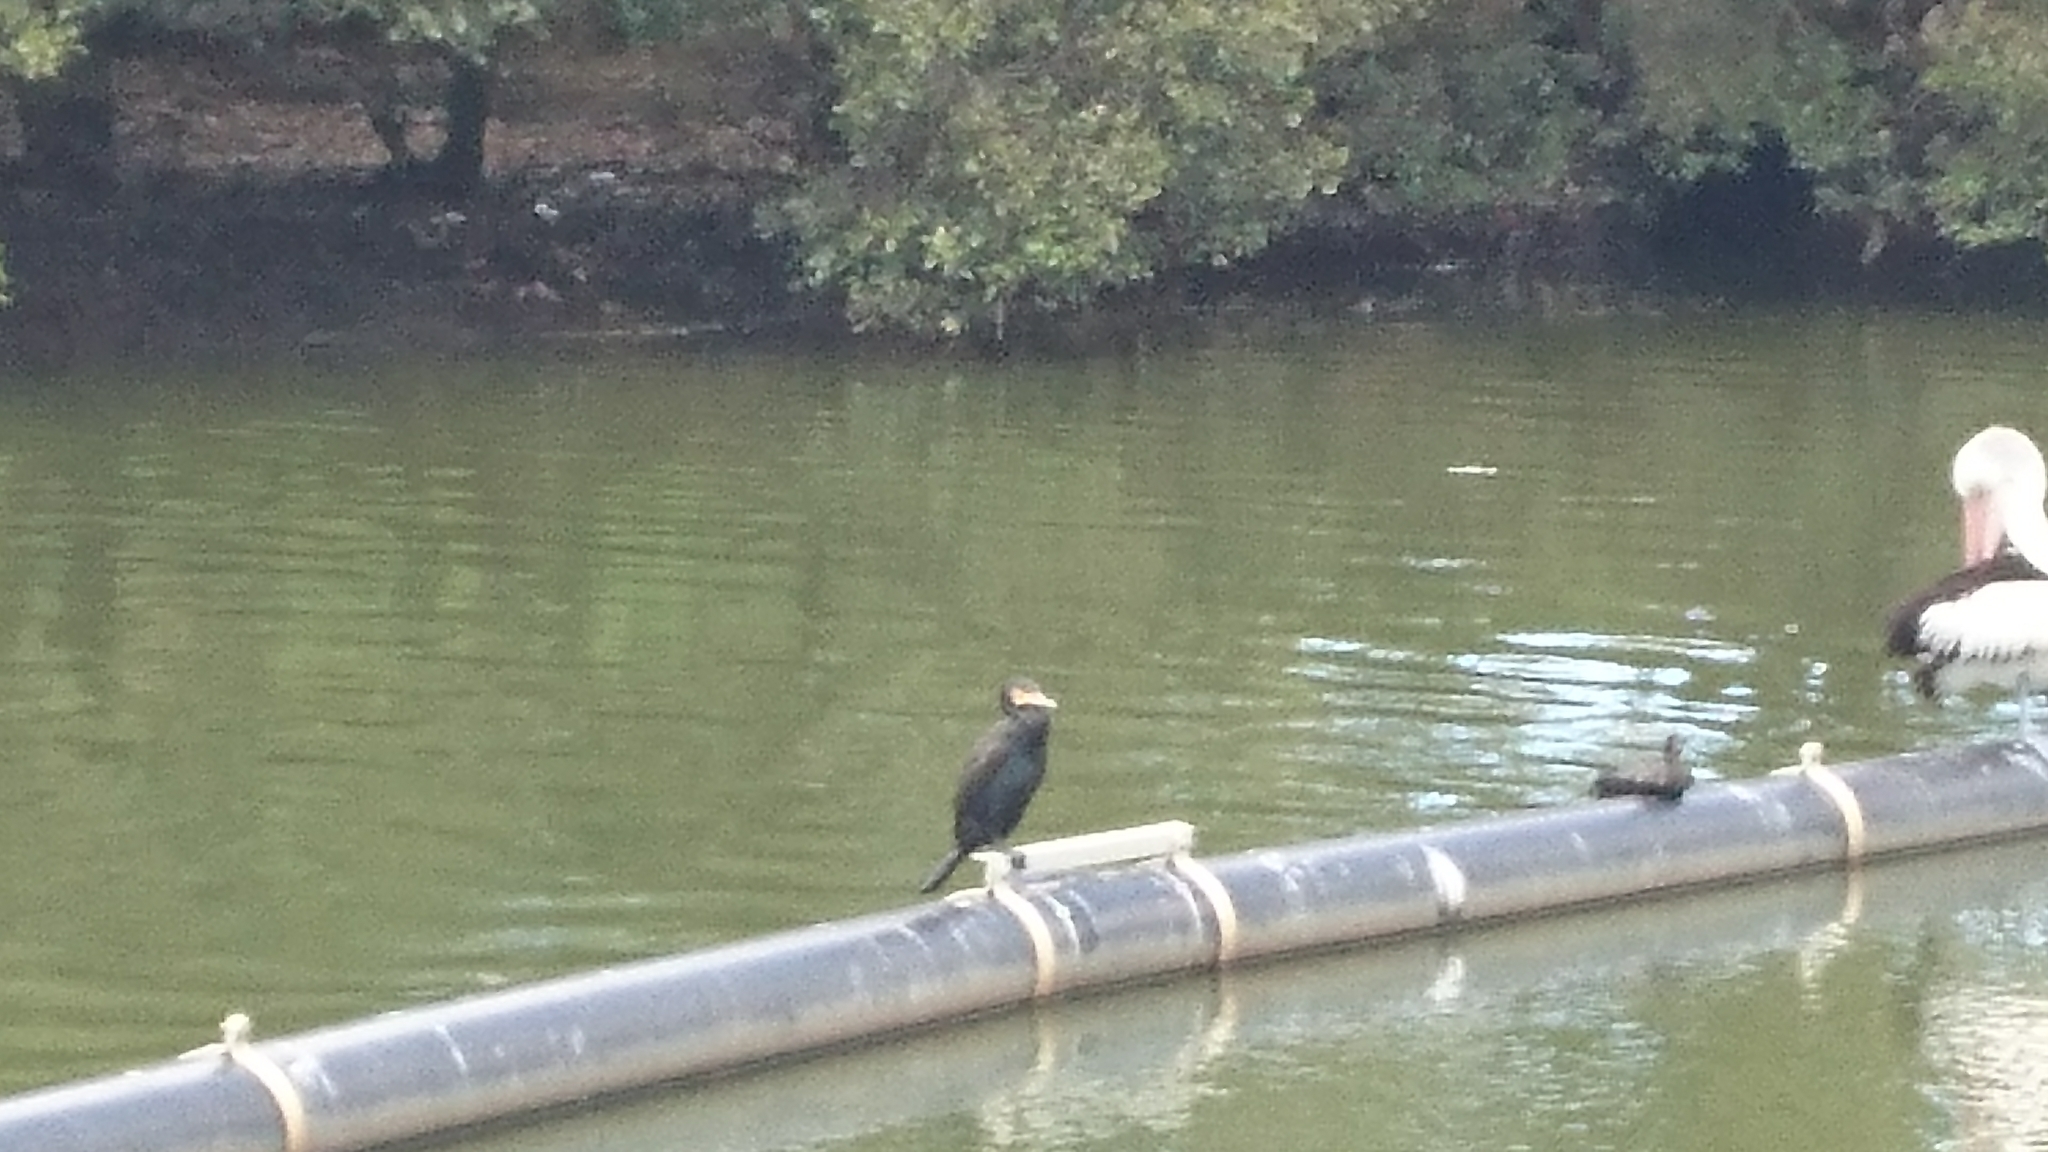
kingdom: Animalia
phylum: Chordata
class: Aves
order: Suliformes
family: Phalacrocoracidae
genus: Phalacrocorax
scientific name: Phalacrocorax carbo
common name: Great cormorant
